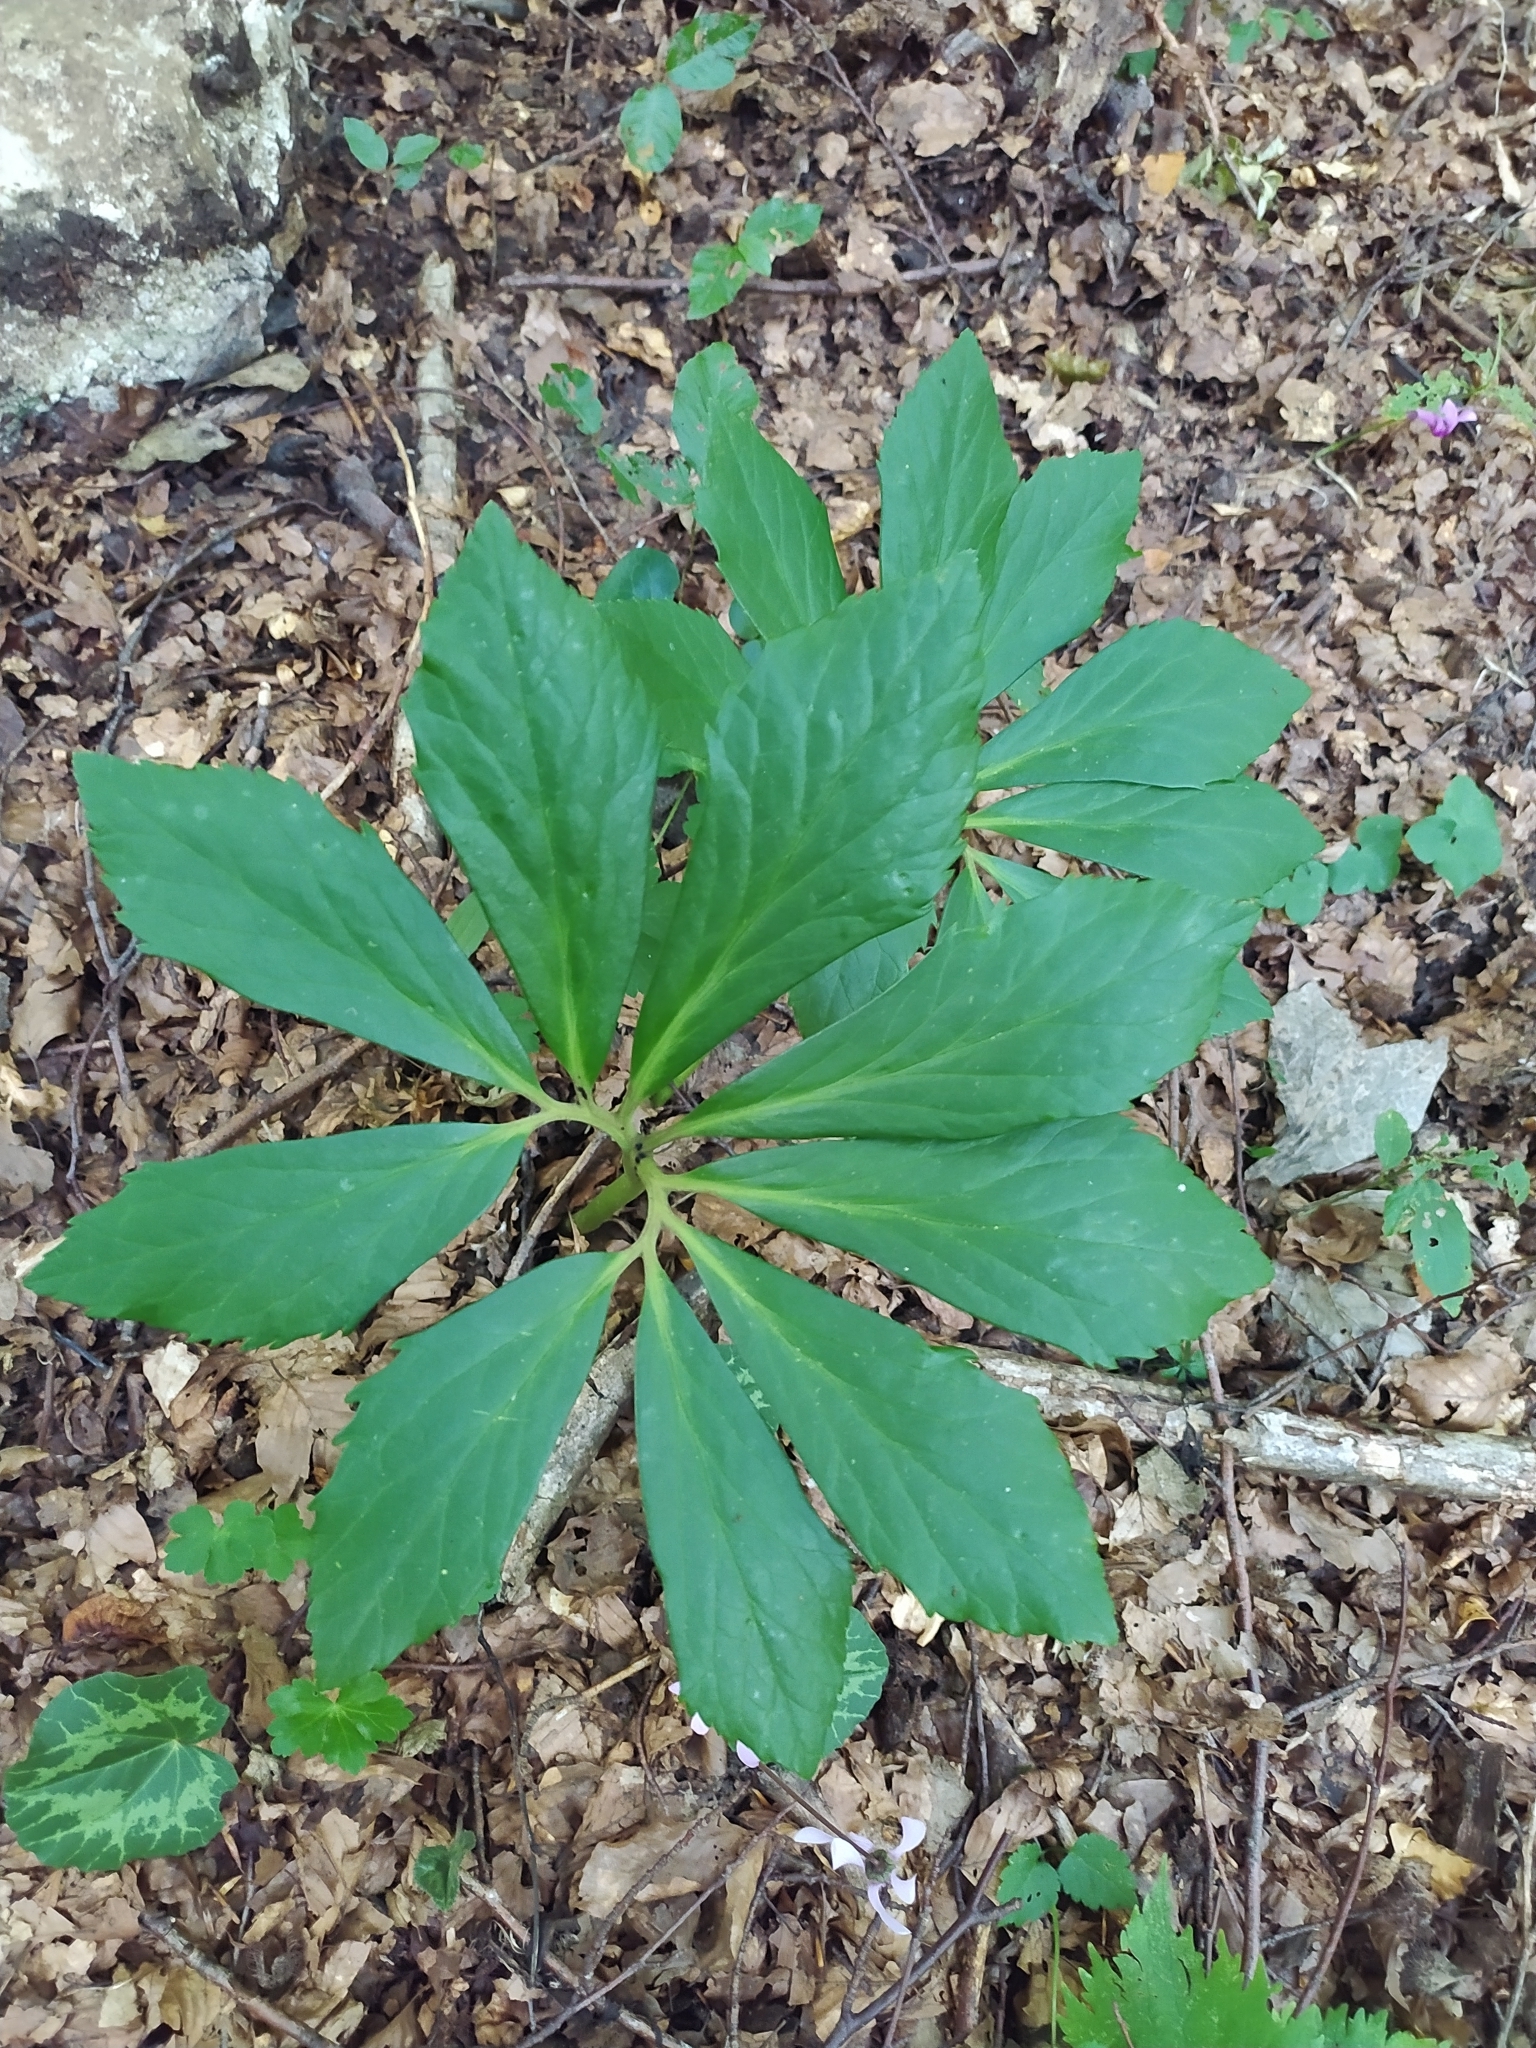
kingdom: Plantae
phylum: Tracheophyta
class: Magnoliopsida
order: Ranunculales
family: Ranunculaceae
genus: Helleborus
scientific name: Helleborus niger
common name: Black hellebore
